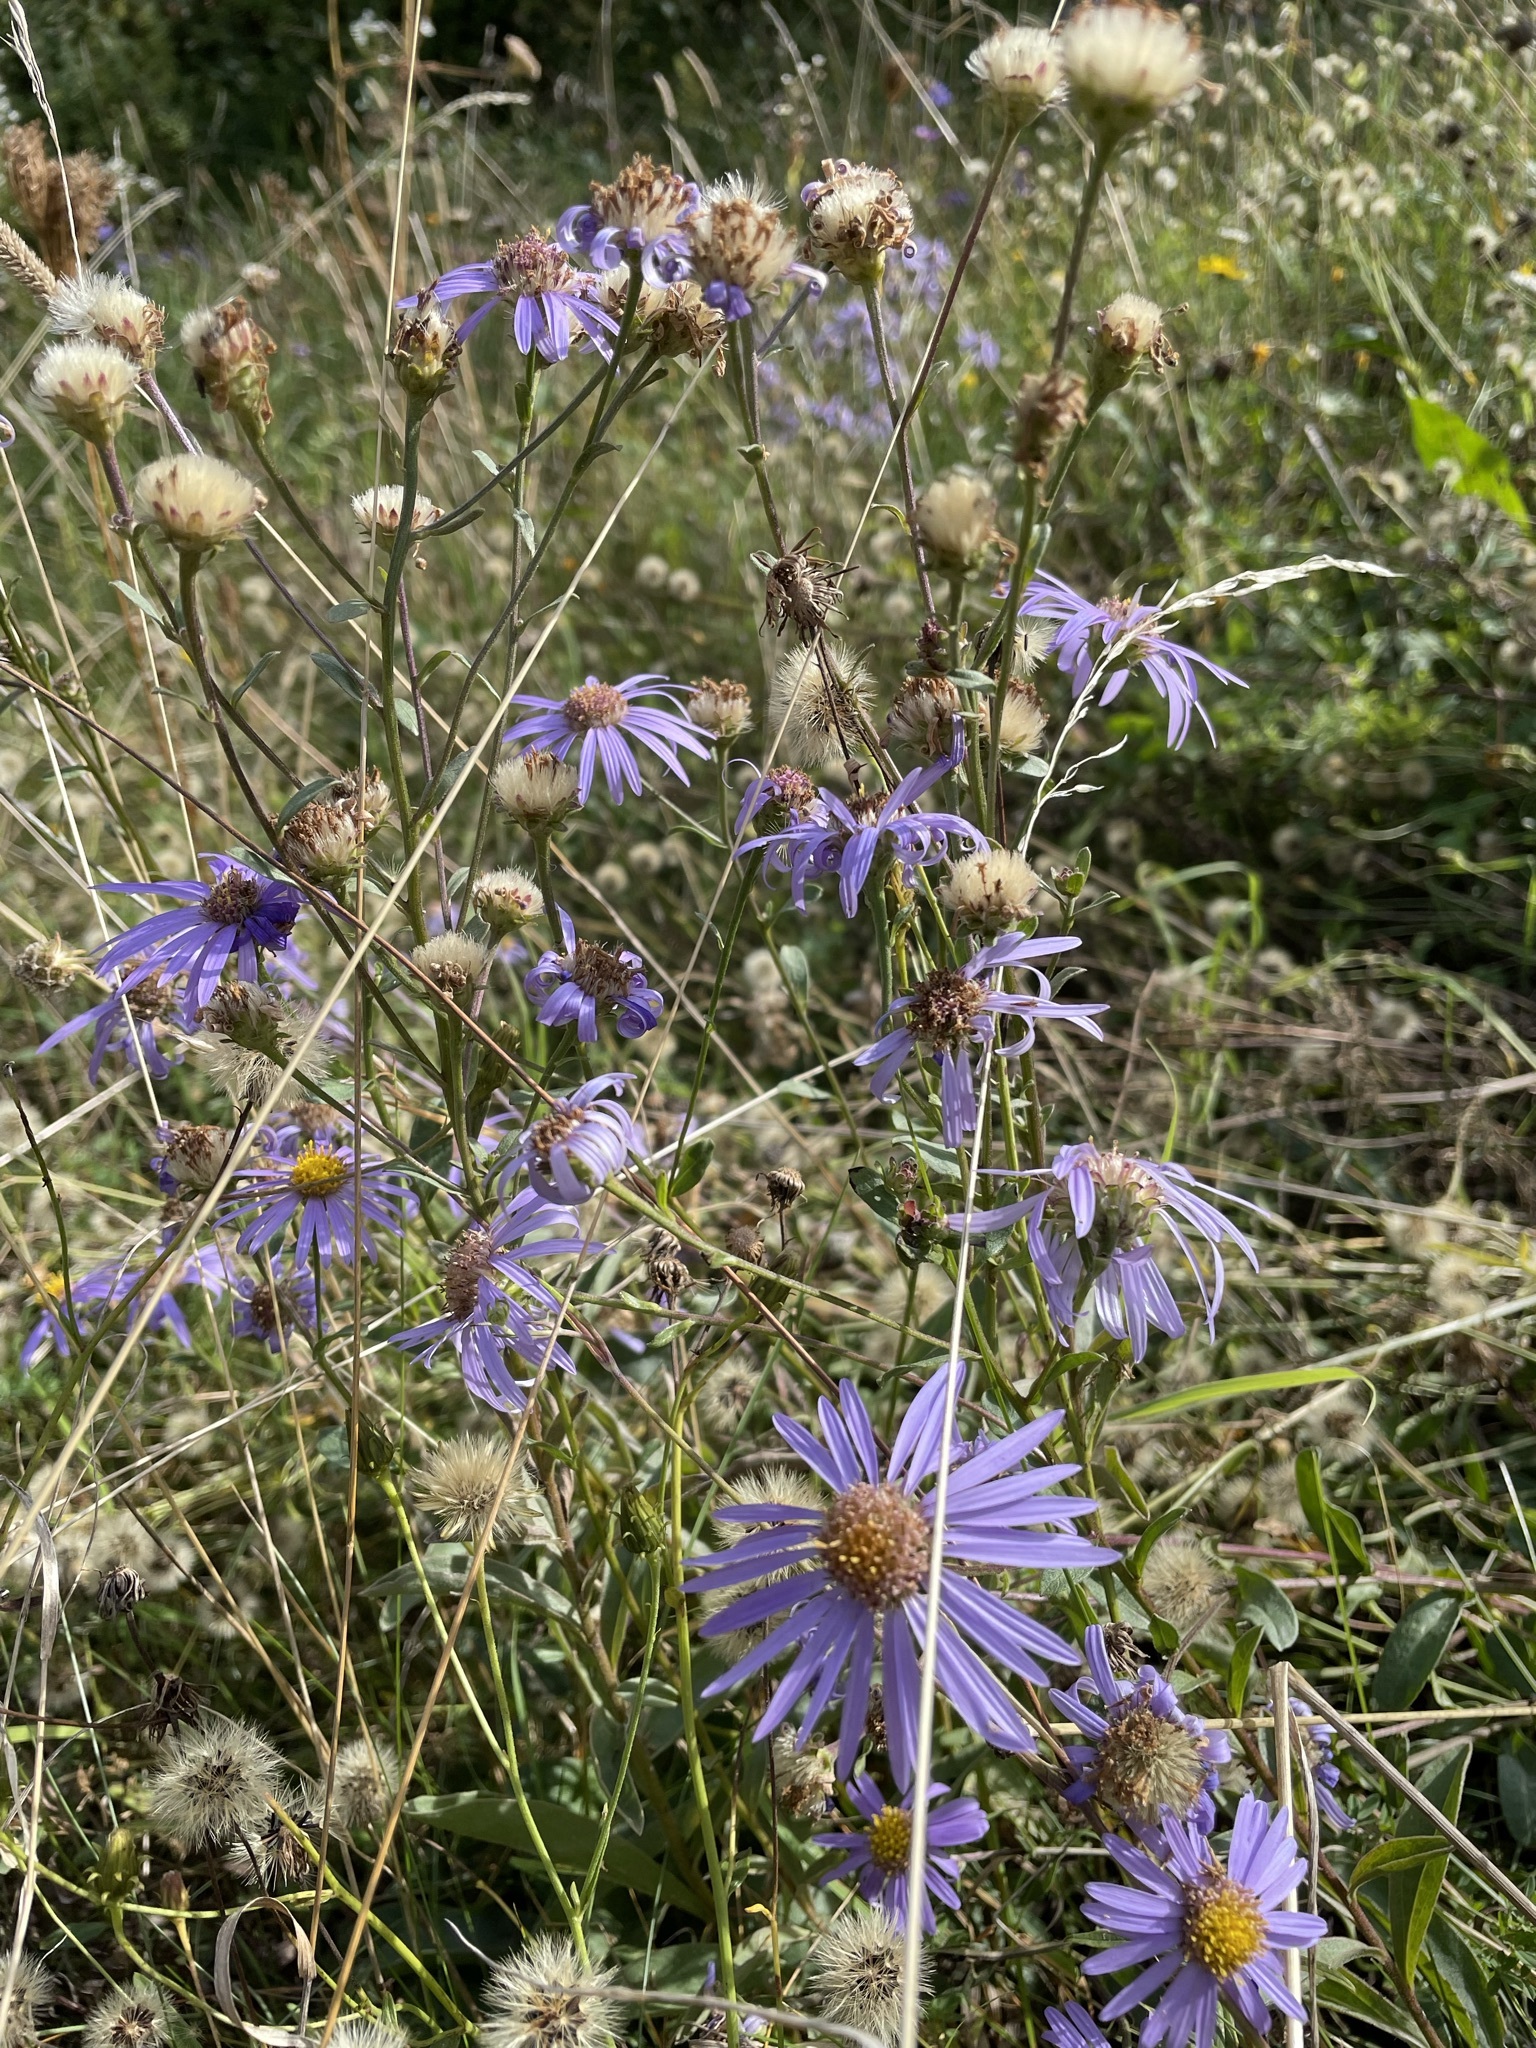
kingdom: Plantae
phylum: Tracheophyta
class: Magnoliopsida
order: Asterales
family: Asteraceae
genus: Aster
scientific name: Aster amellus
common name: European michaelmas daisy
